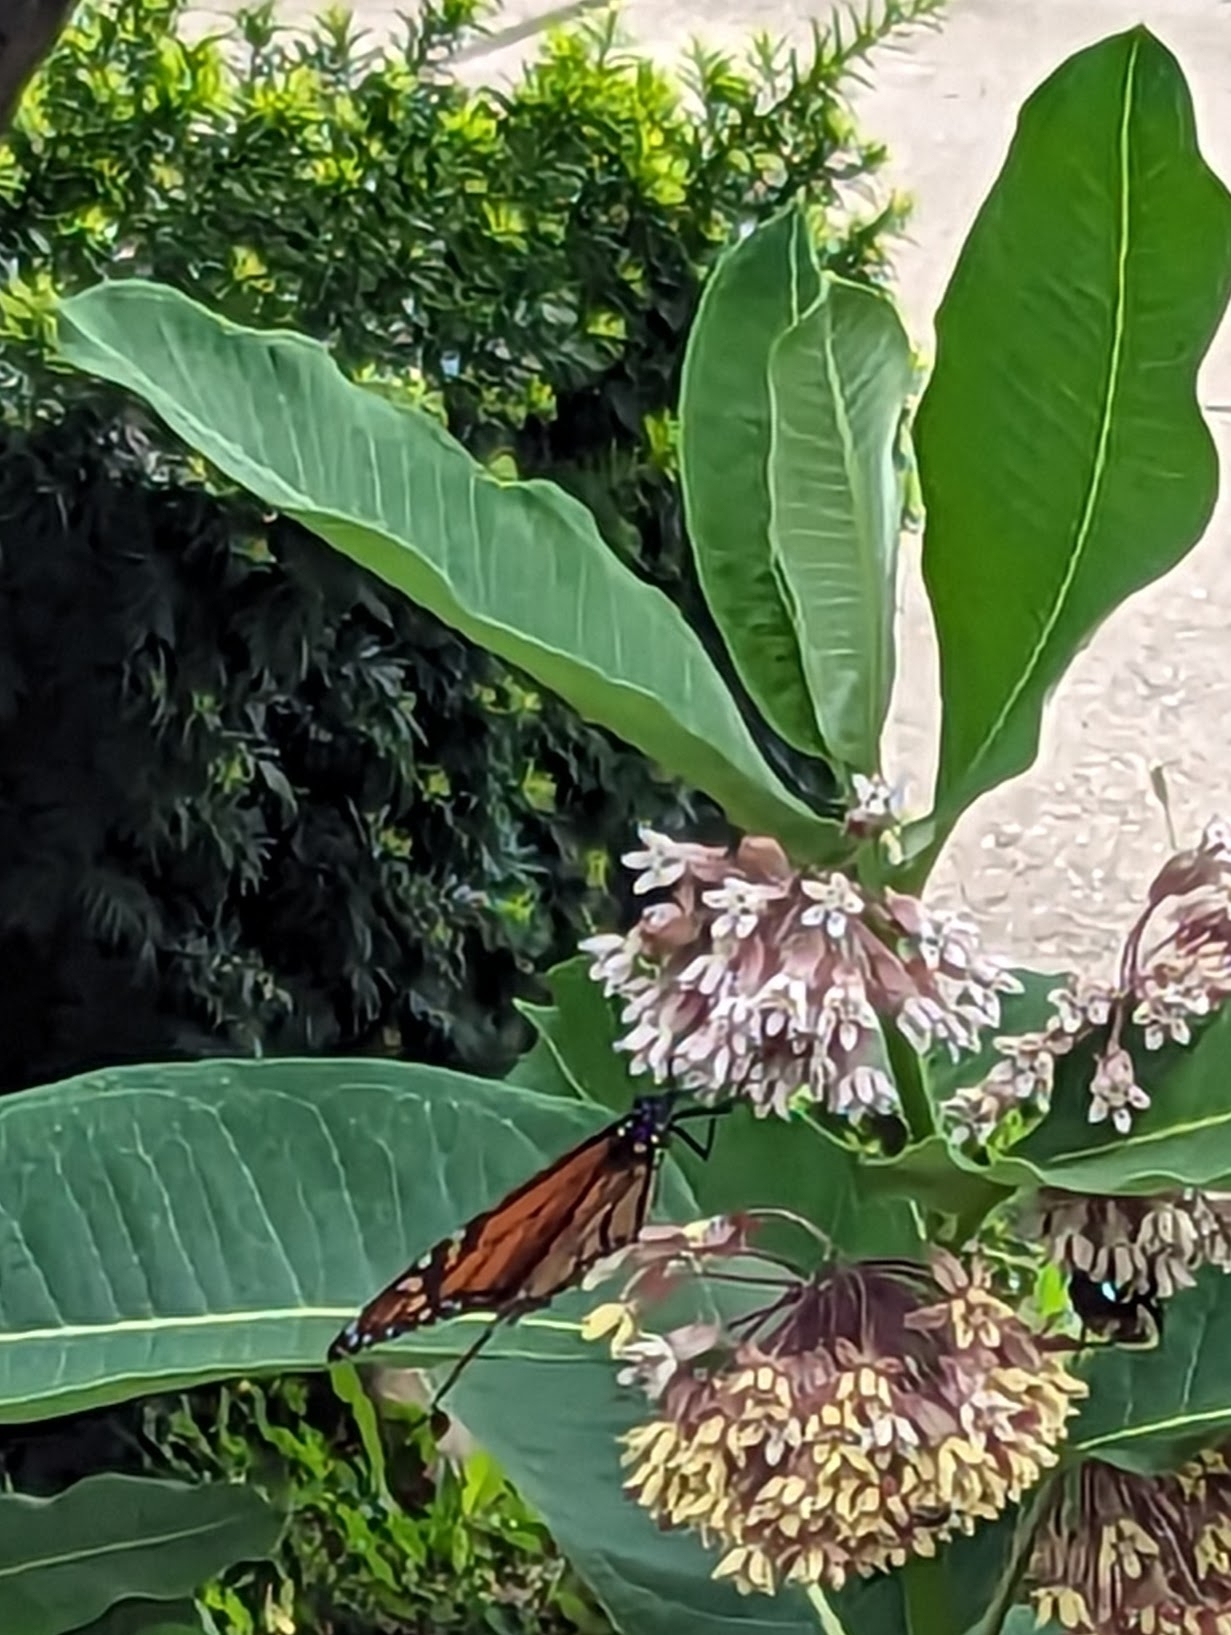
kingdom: Plantae
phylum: Tracheophyta
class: Magnoliopsida
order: Gentianales
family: Apocynaceae
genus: Asclepias
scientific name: Asclepias syriaca
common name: Common milkweed
